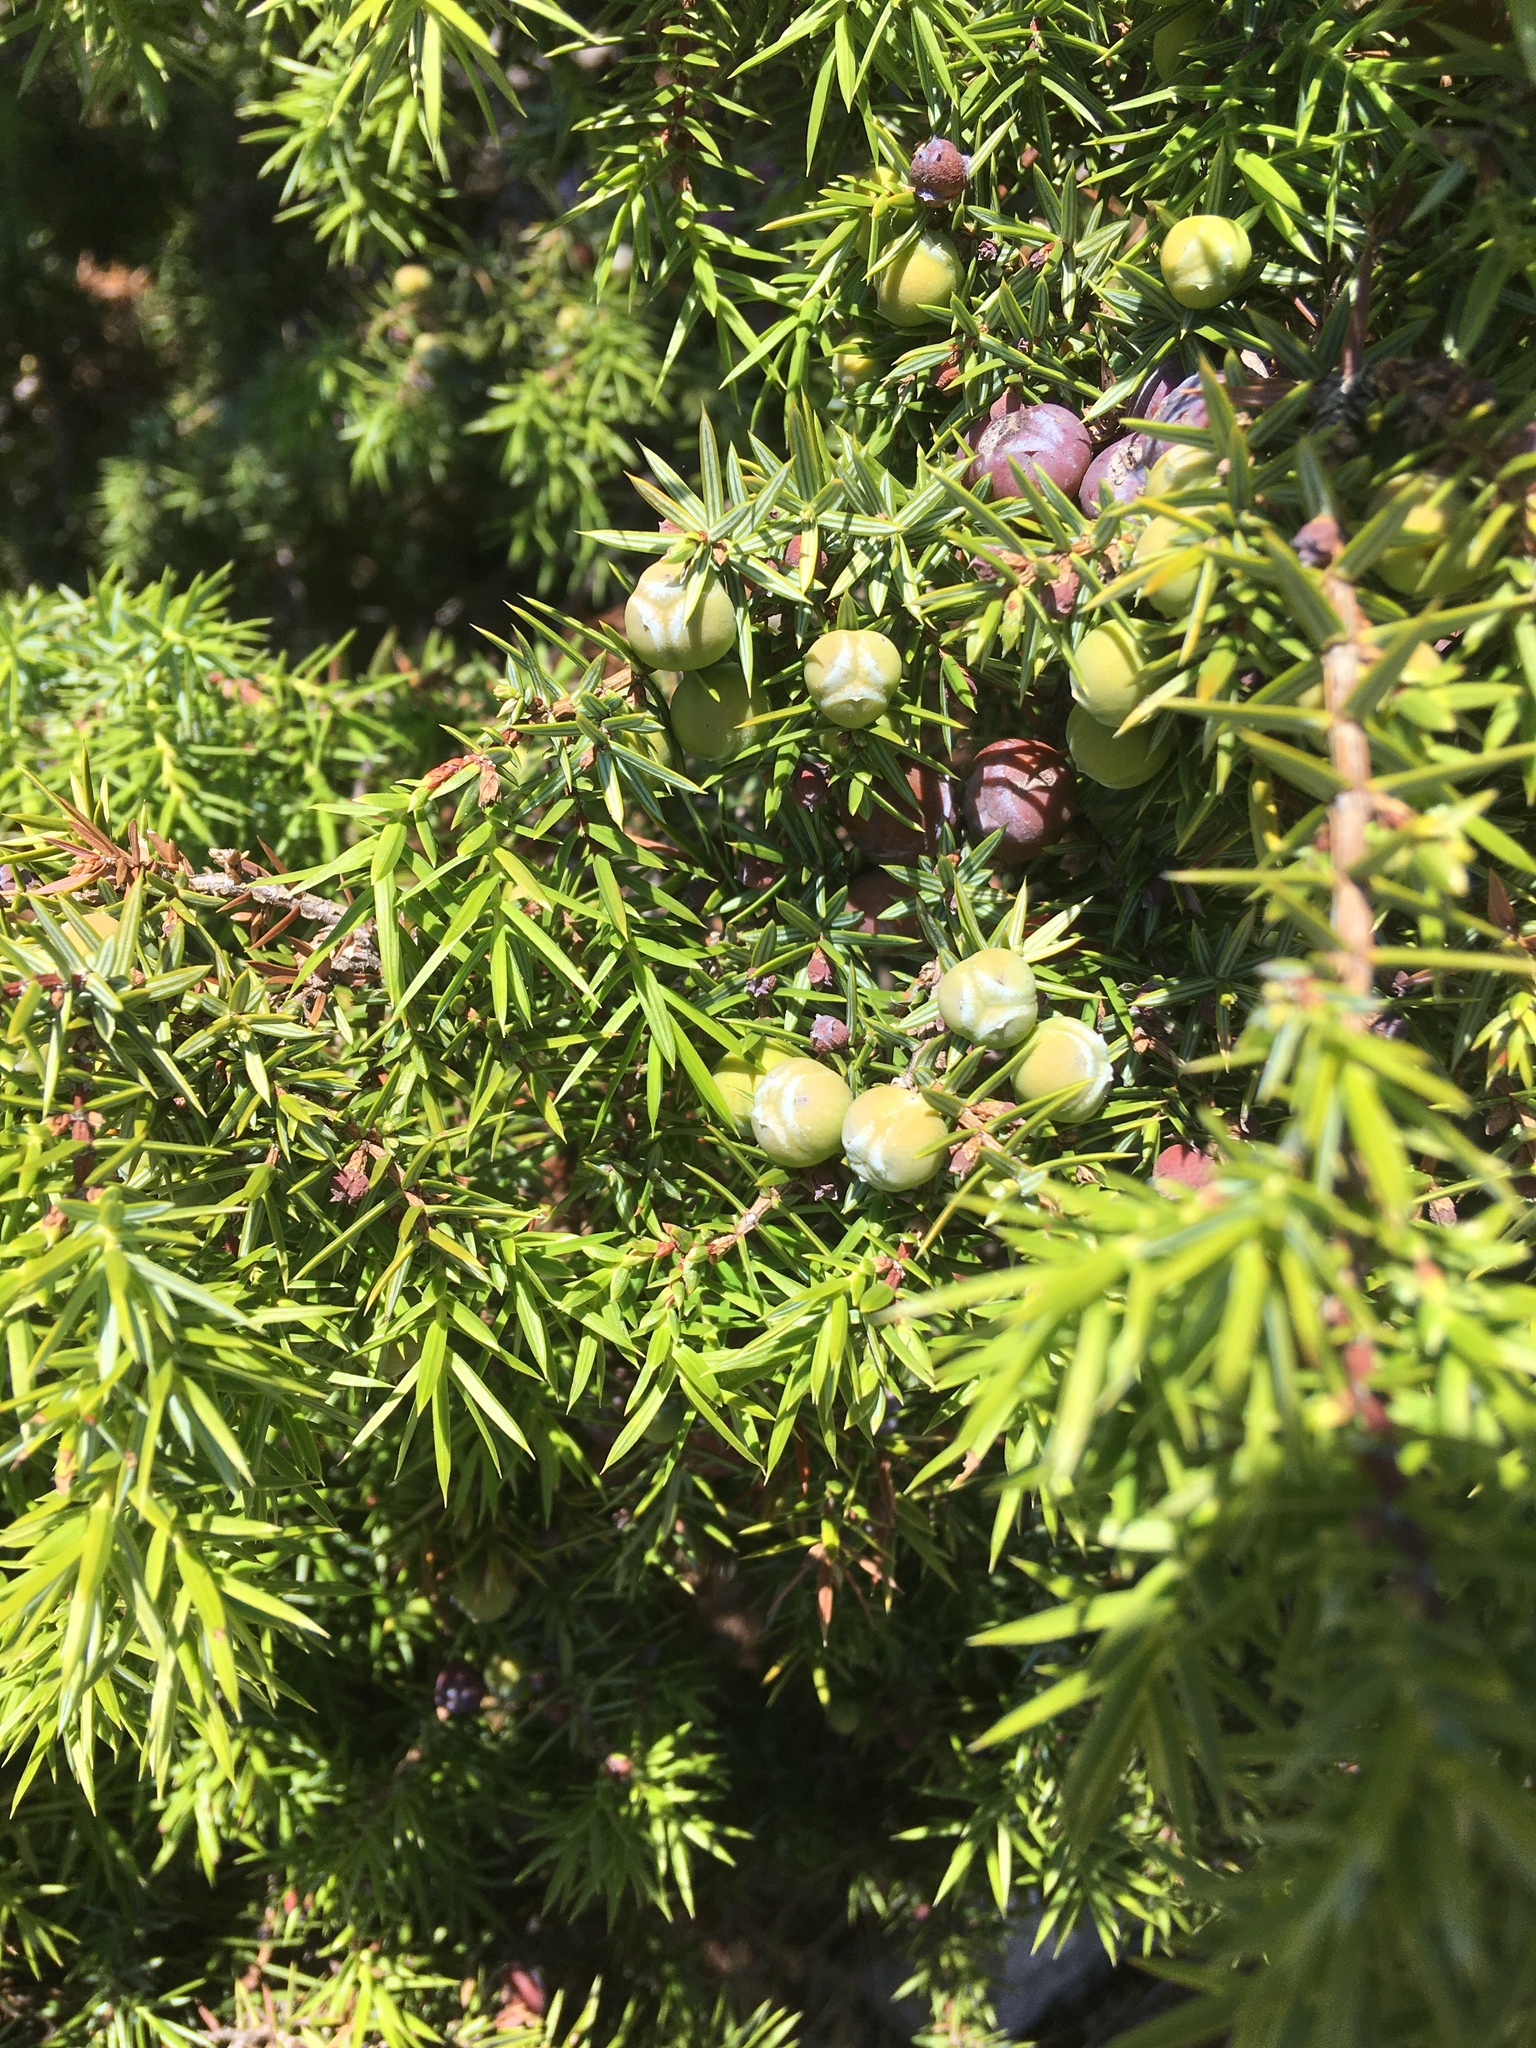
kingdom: Plantae
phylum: Tracheophyta
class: Pinopsida
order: Pinales
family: Cupressaceae
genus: Juniperus
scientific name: Juniperus oxycedrus
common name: Prickly juniper
